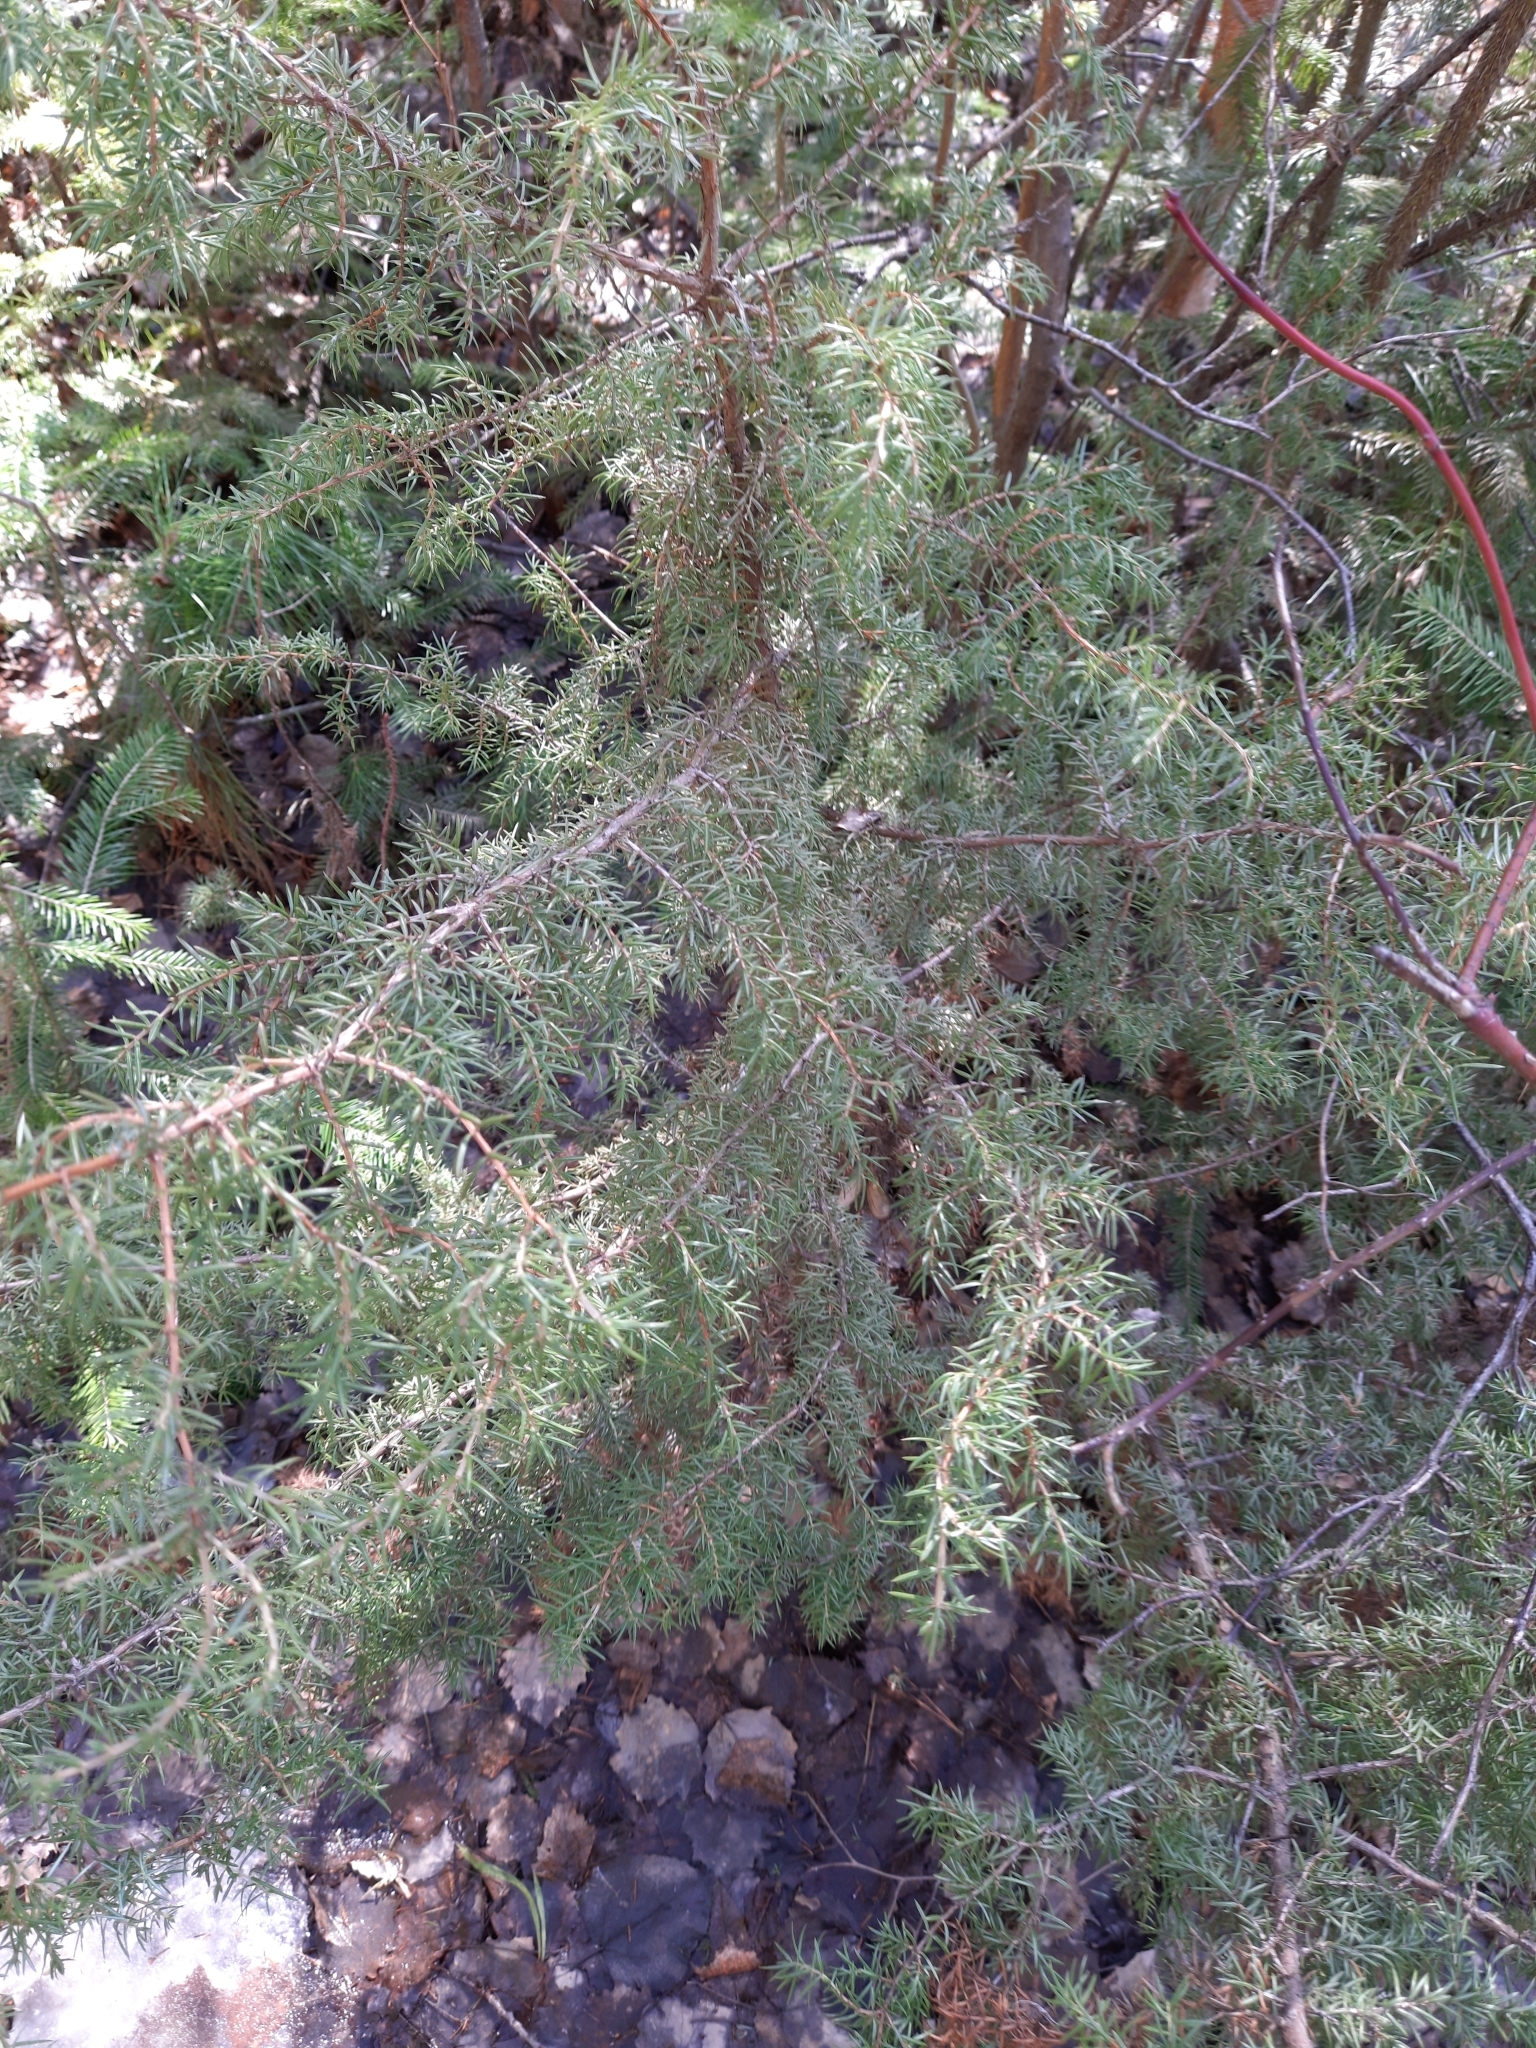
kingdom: Plantae
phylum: Tracheophyta
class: Pinopsida
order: Pinales
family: Cupressaceae
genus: Juniperus
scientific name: Juniperus communis
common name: Common juniper
